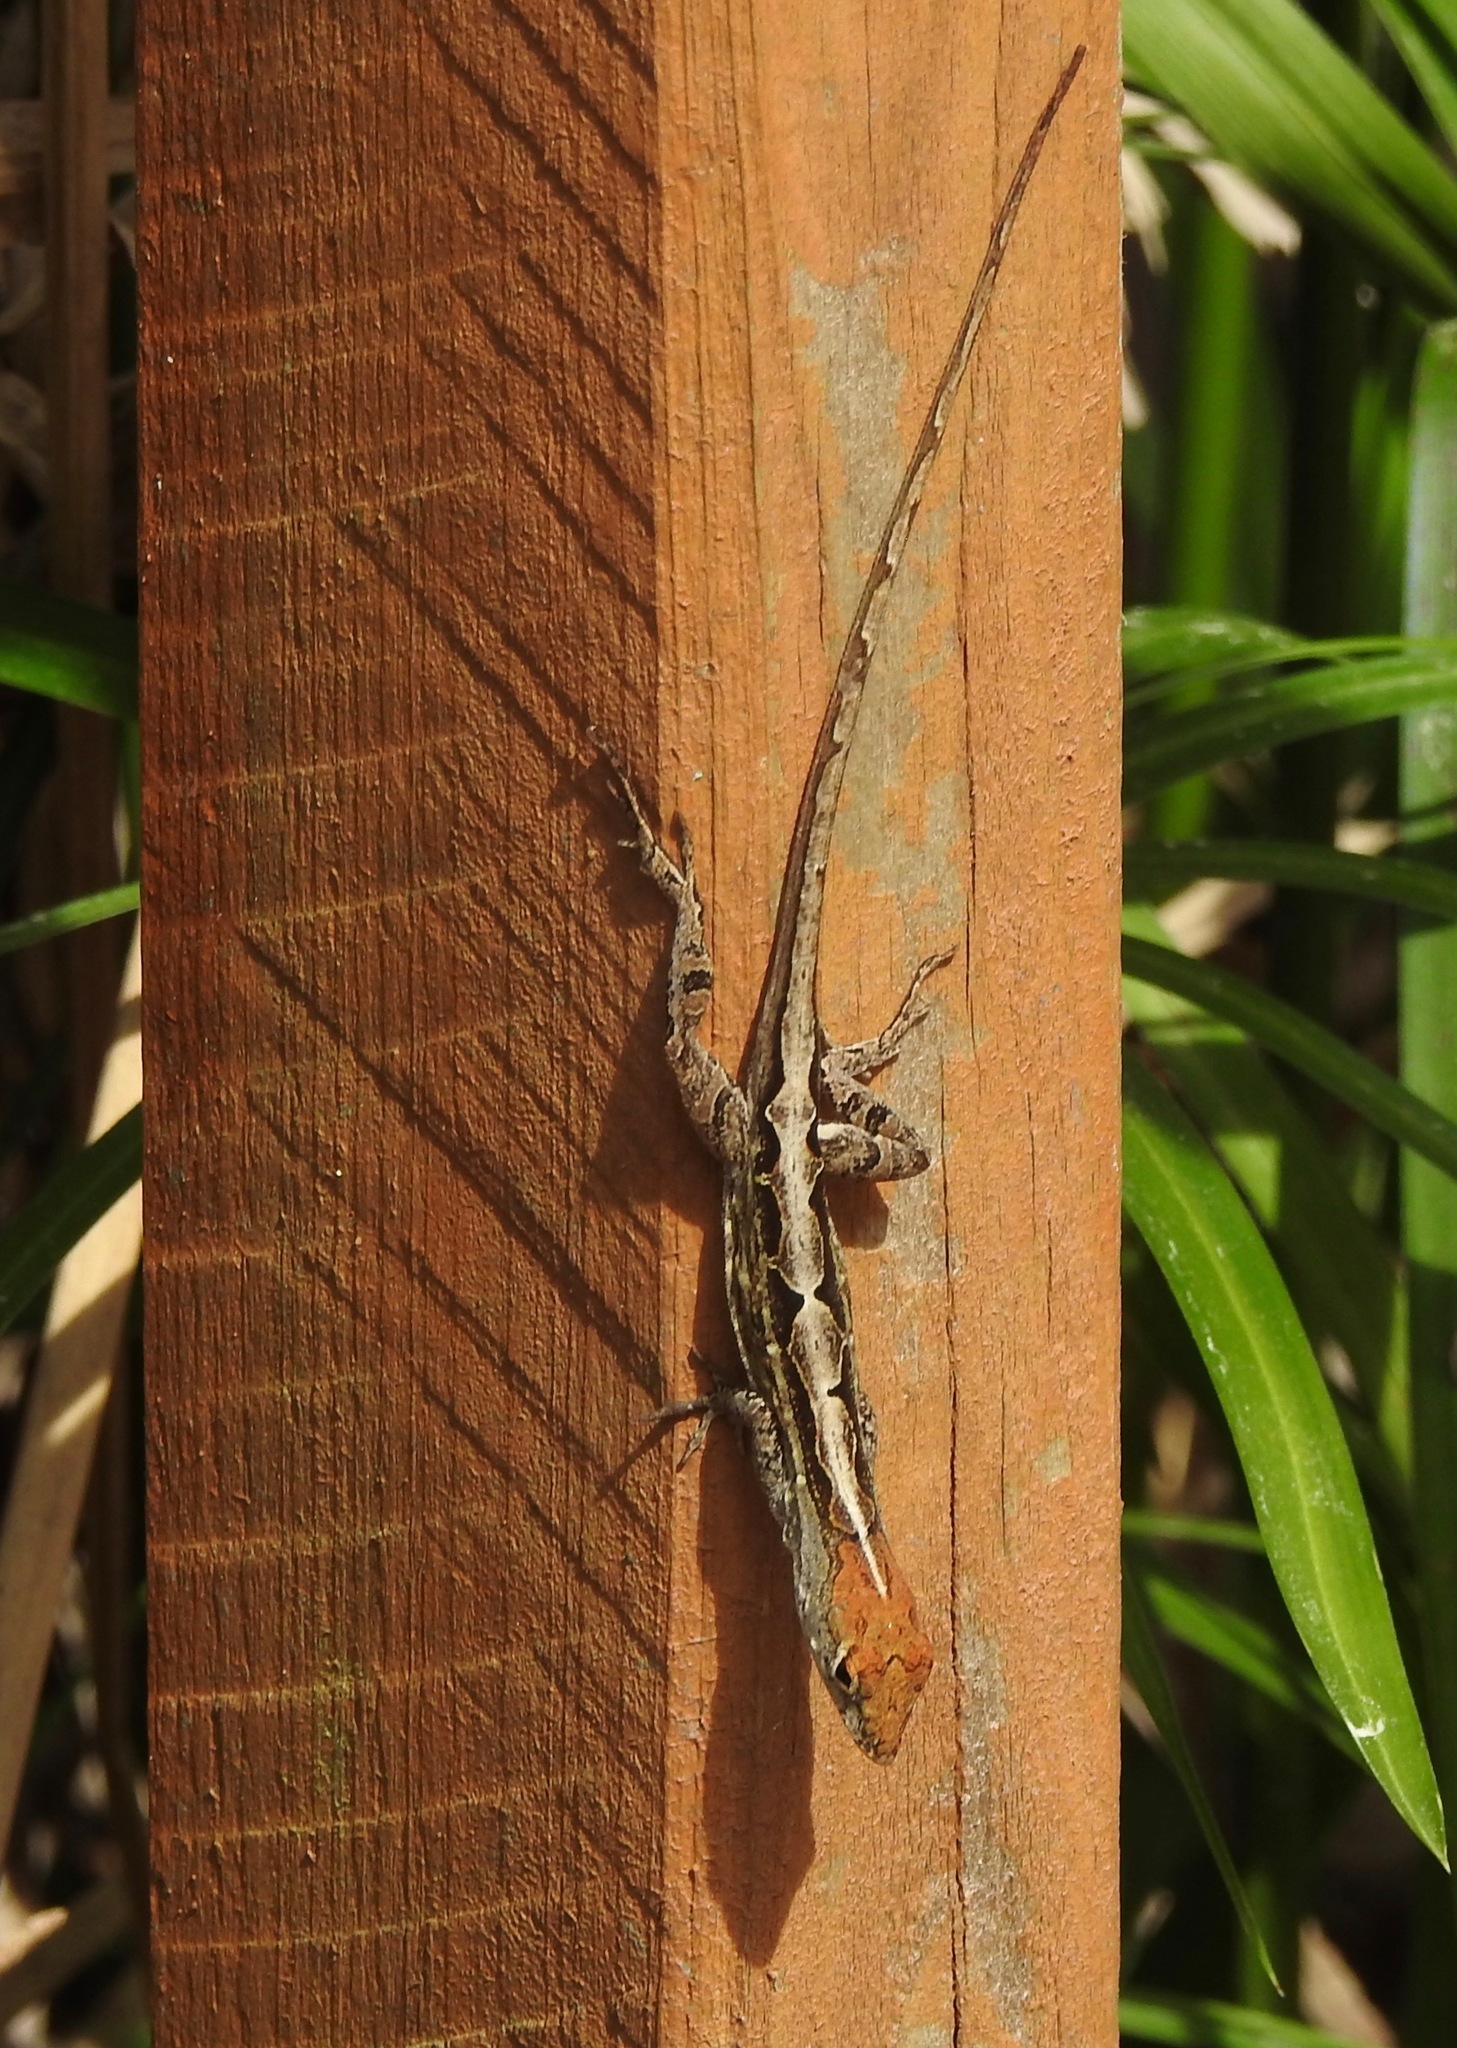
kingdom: Animalia
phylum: Chordata
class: Squamata
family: Dactyloidae
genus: Anolis
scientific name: Anolis sagrei
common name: Brown anole
